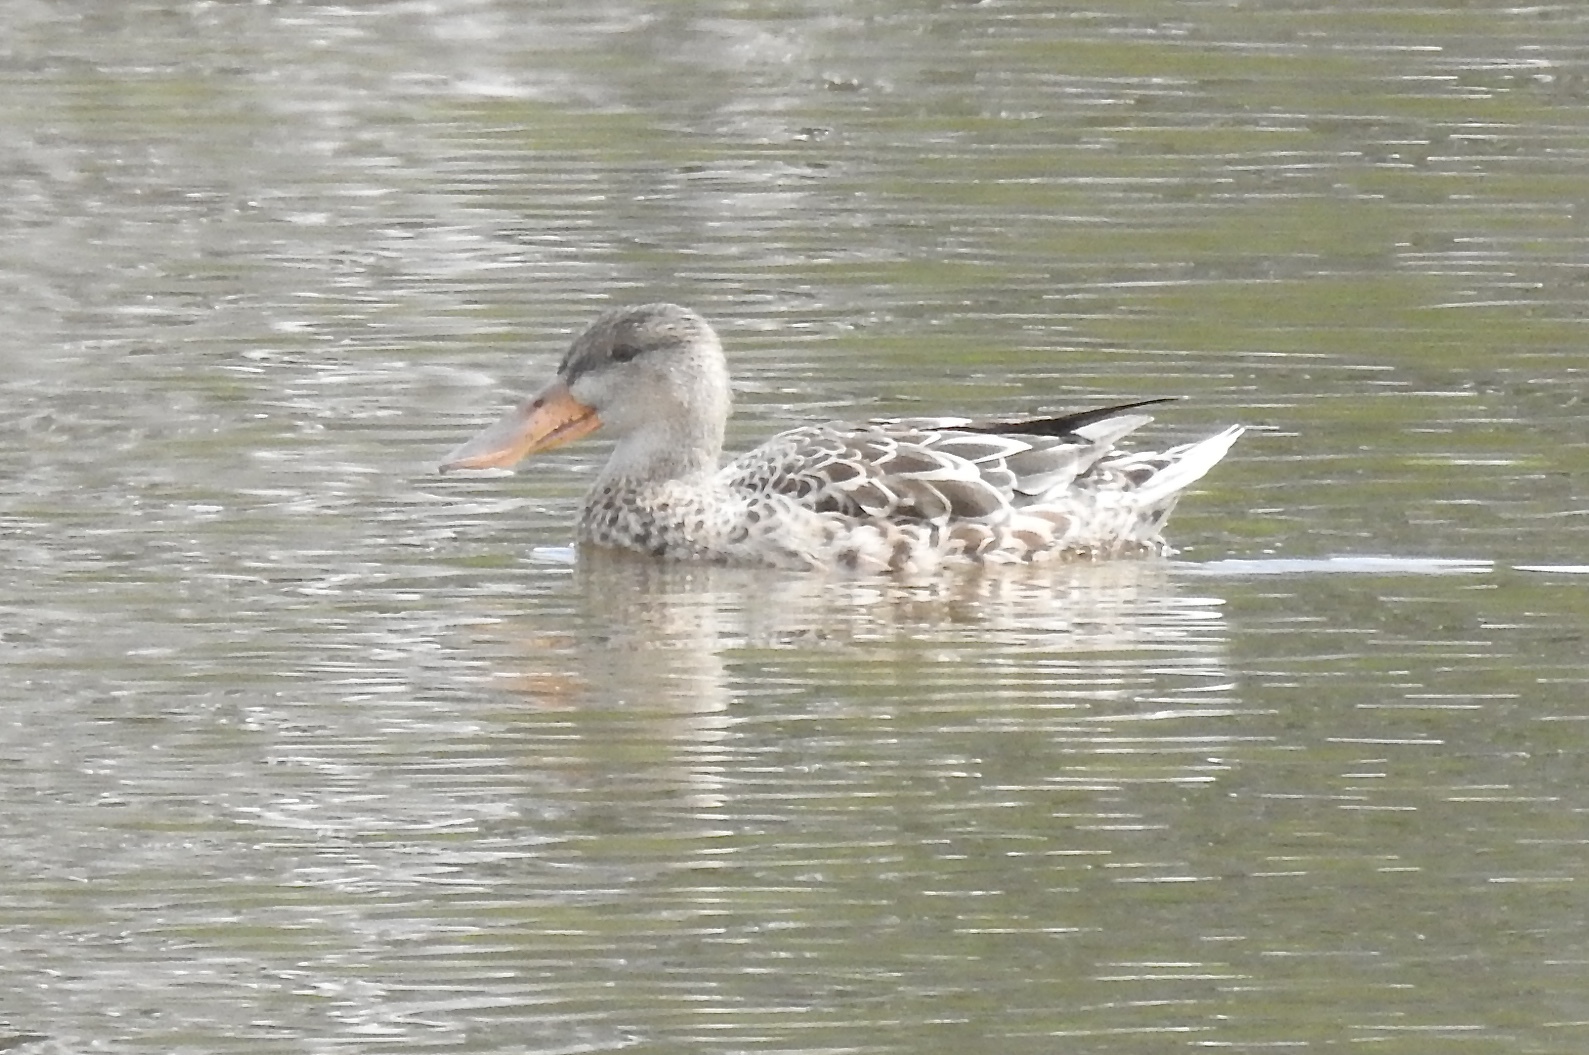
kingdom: Animalia
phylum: Chordata
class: Aves
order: Anseriformes
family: Anatidae
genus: Spatula
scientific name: Spatula clypeata
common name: Northern shoveler
